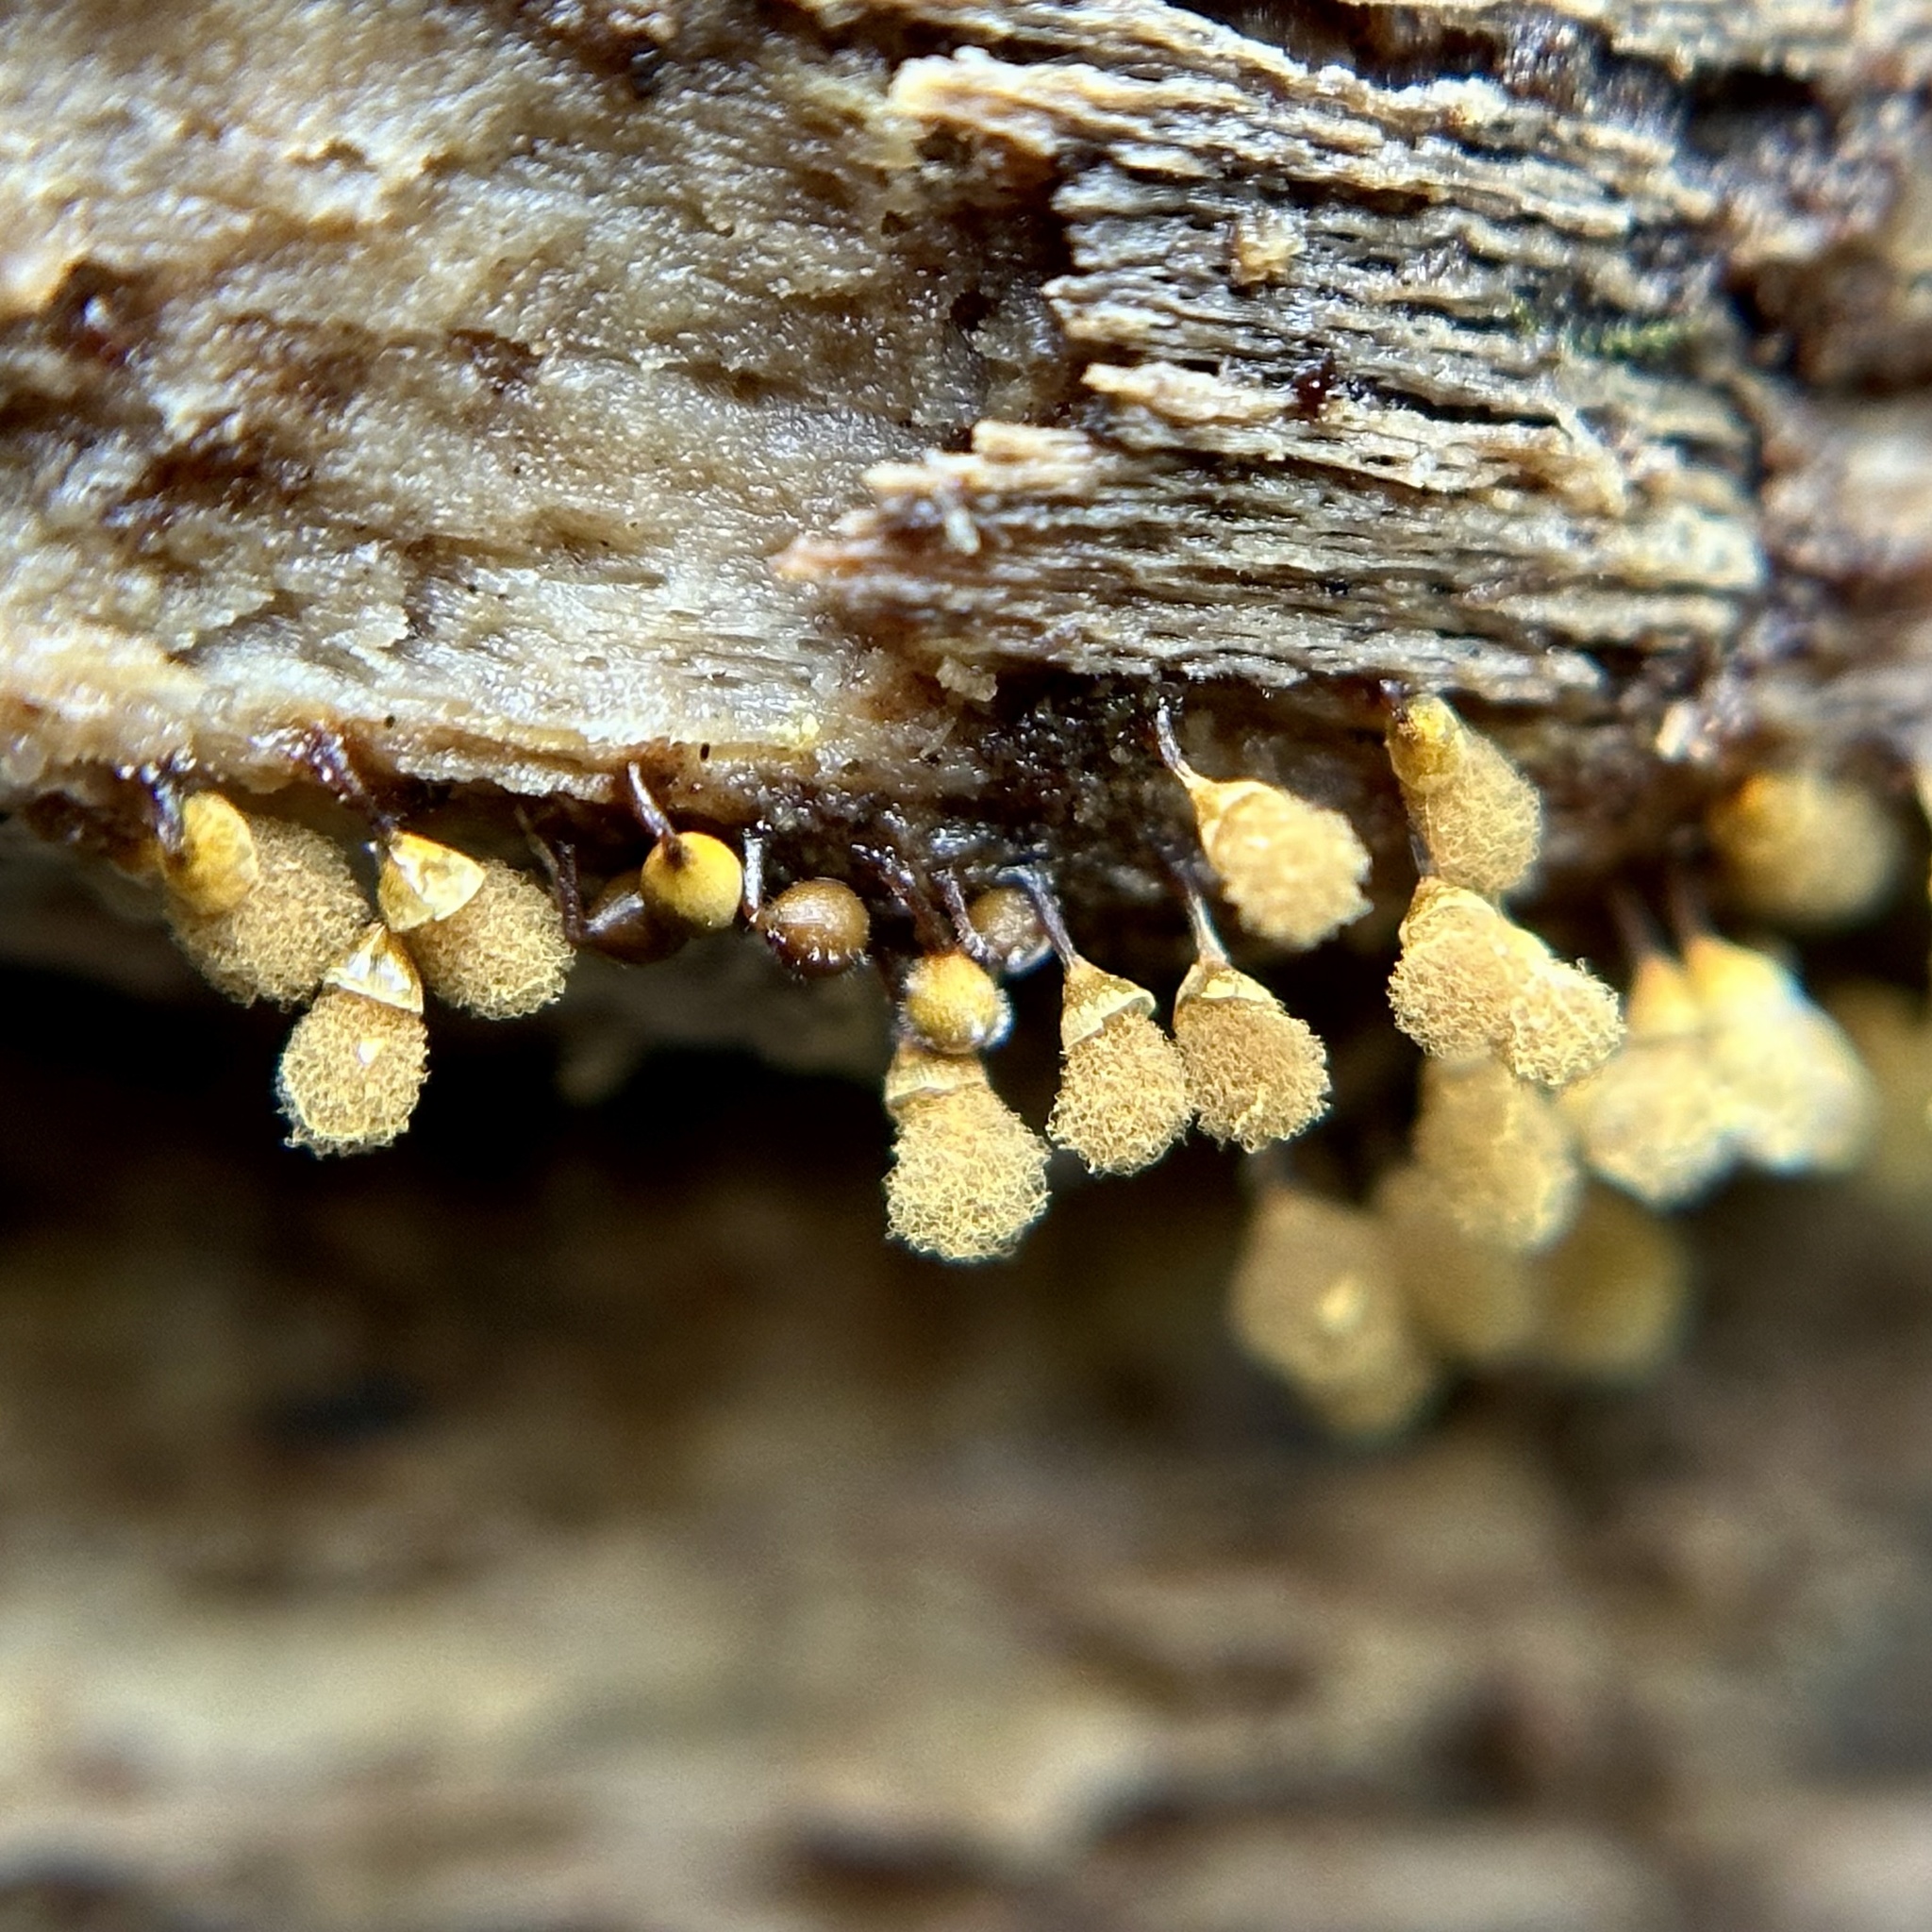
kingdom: Protozoa
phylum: Mycetozoa
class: Myxomycetes
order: Trichiales
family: Arcyriaceae
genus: Hemitrichia
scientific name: Hemitrichia calyculata
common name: Push pin slime mold
